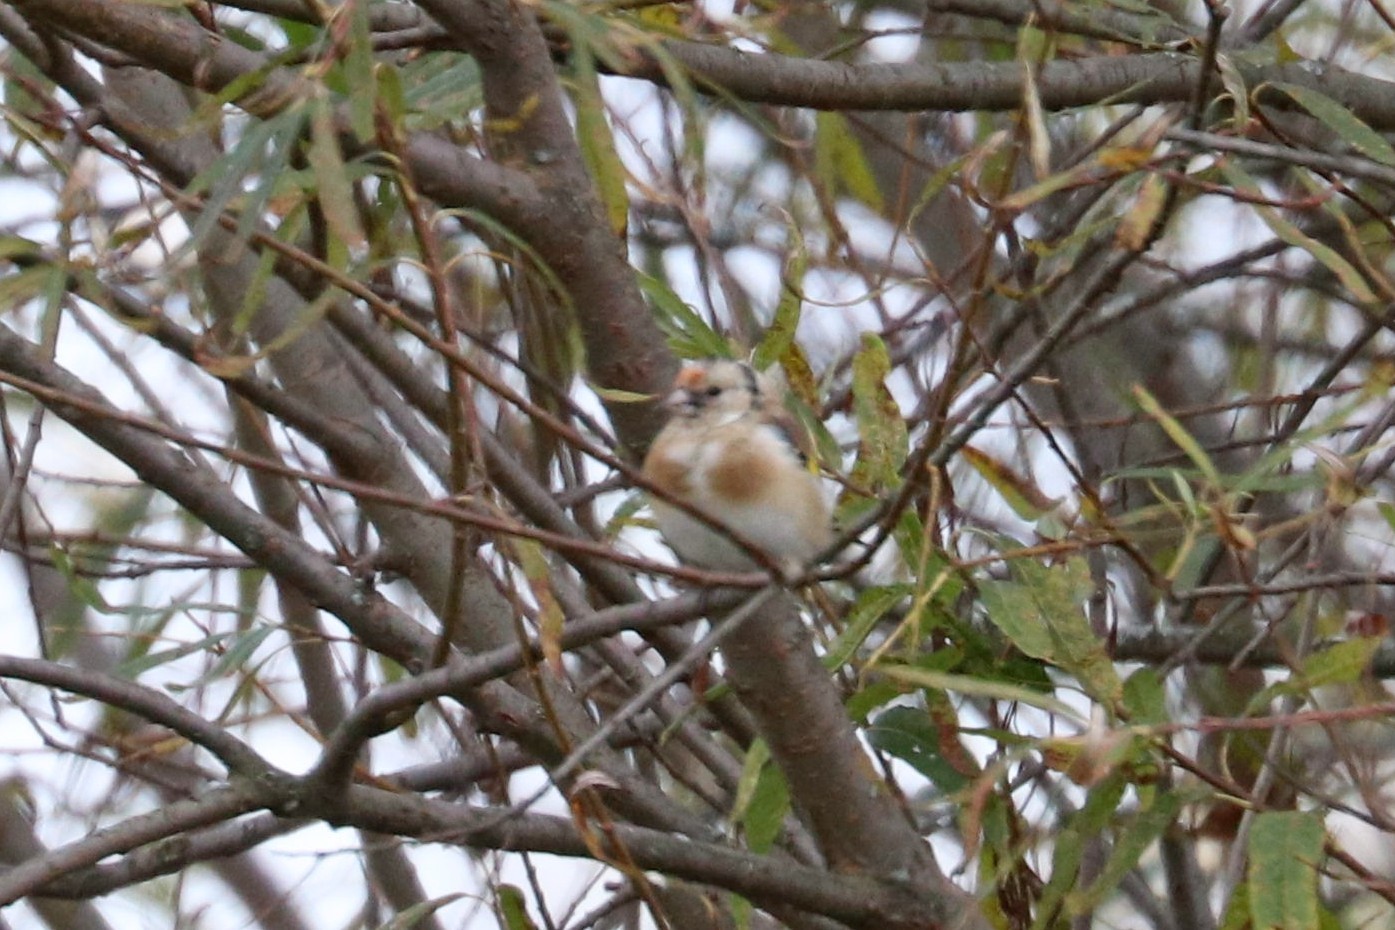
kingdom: Animalia
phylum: Chordata
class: Aves
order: Passeriformes
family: Fringillidae
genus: Carduelis
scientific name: Carduelis carduelis
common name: European goldfinch
